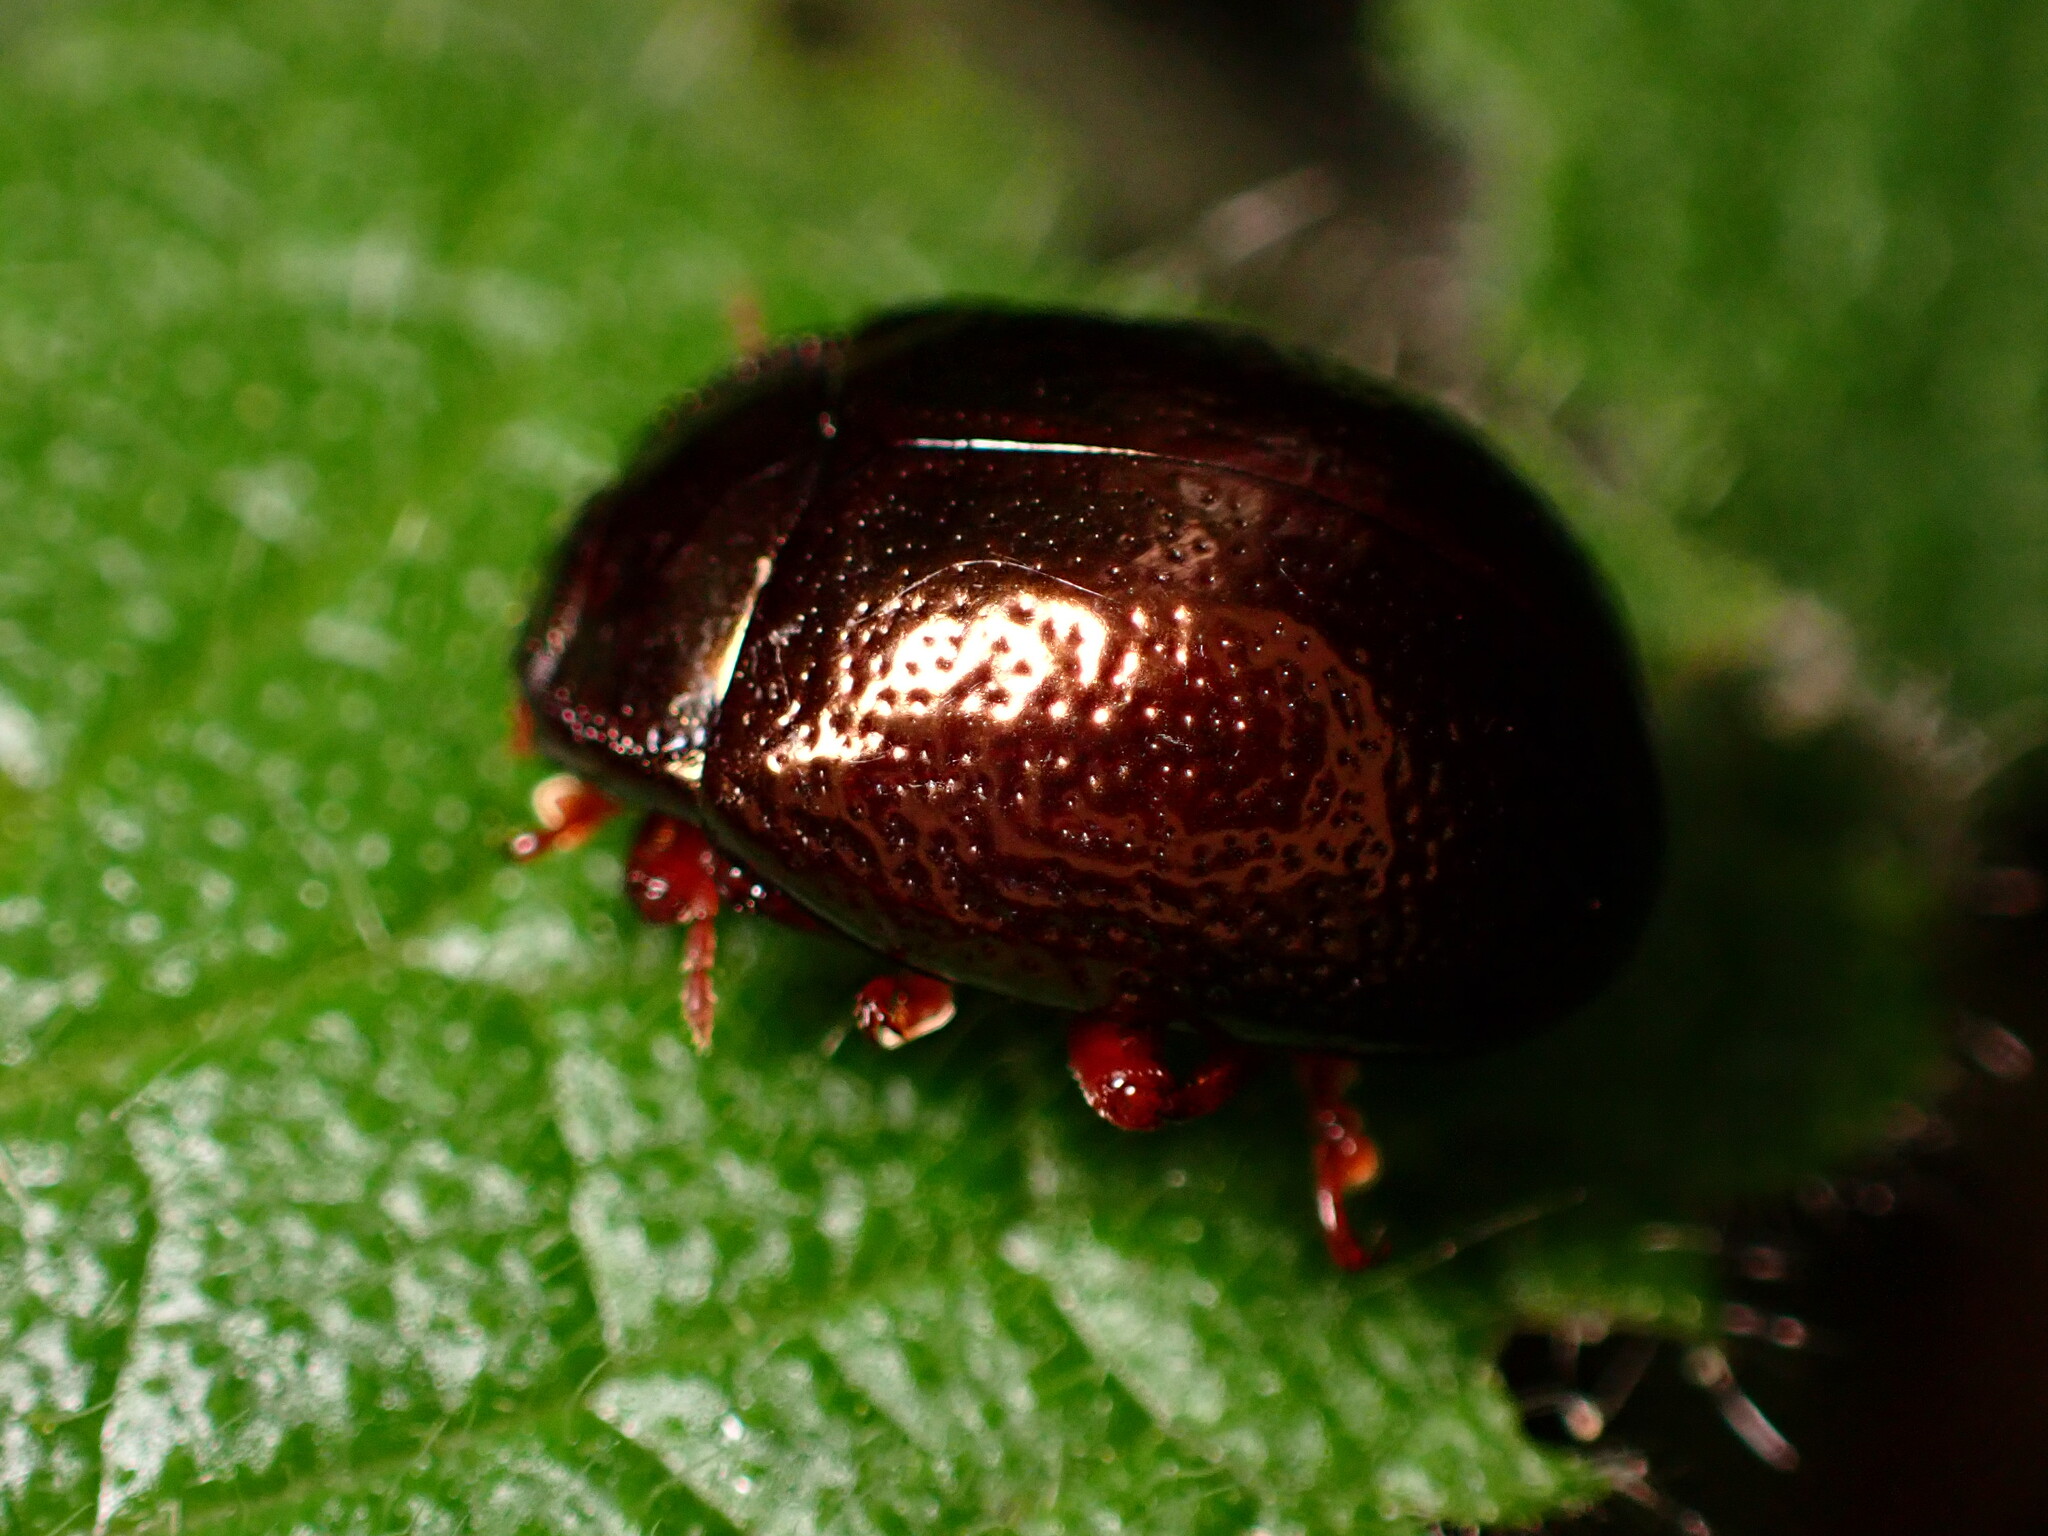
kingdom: Animalia
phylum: Arthropoda
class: Insecta
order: Coleoptera
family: Chrysomelidae
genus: Chrysolina
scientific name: Chrysolina bankii
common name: Leaf beetle
